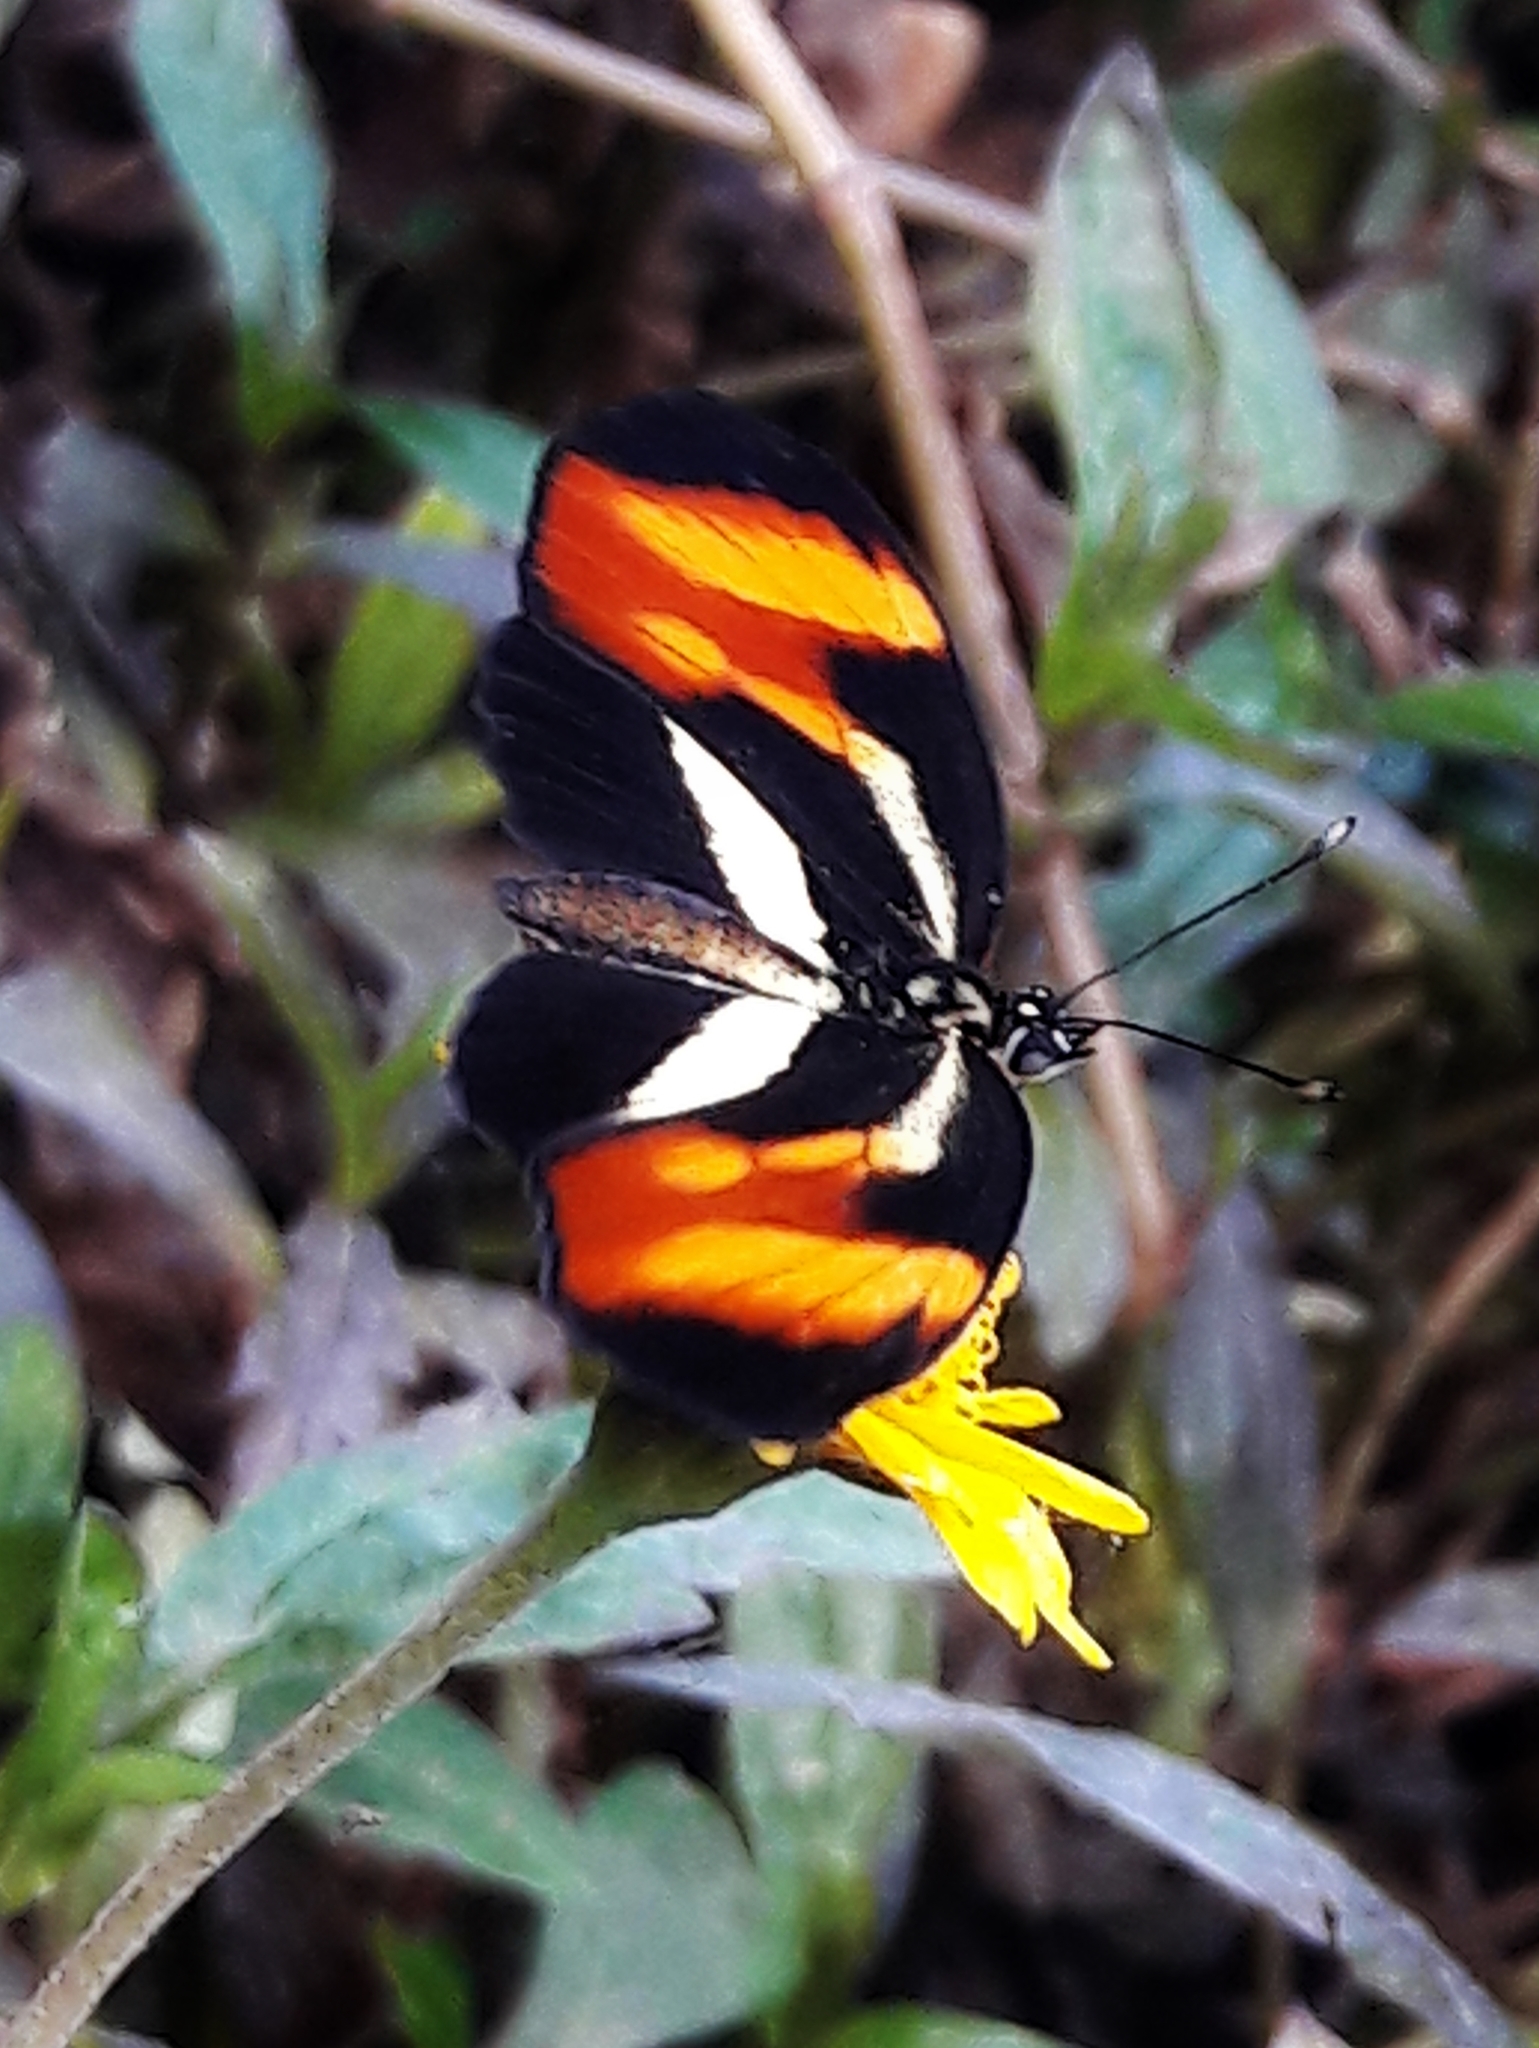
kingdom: Animalia
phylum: Arthropoda
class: Insecta
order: Lepidoptera
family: Nymphalidae
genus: Eresia
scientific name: Eresia lansdorfi
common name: Lansdorf's crescent
